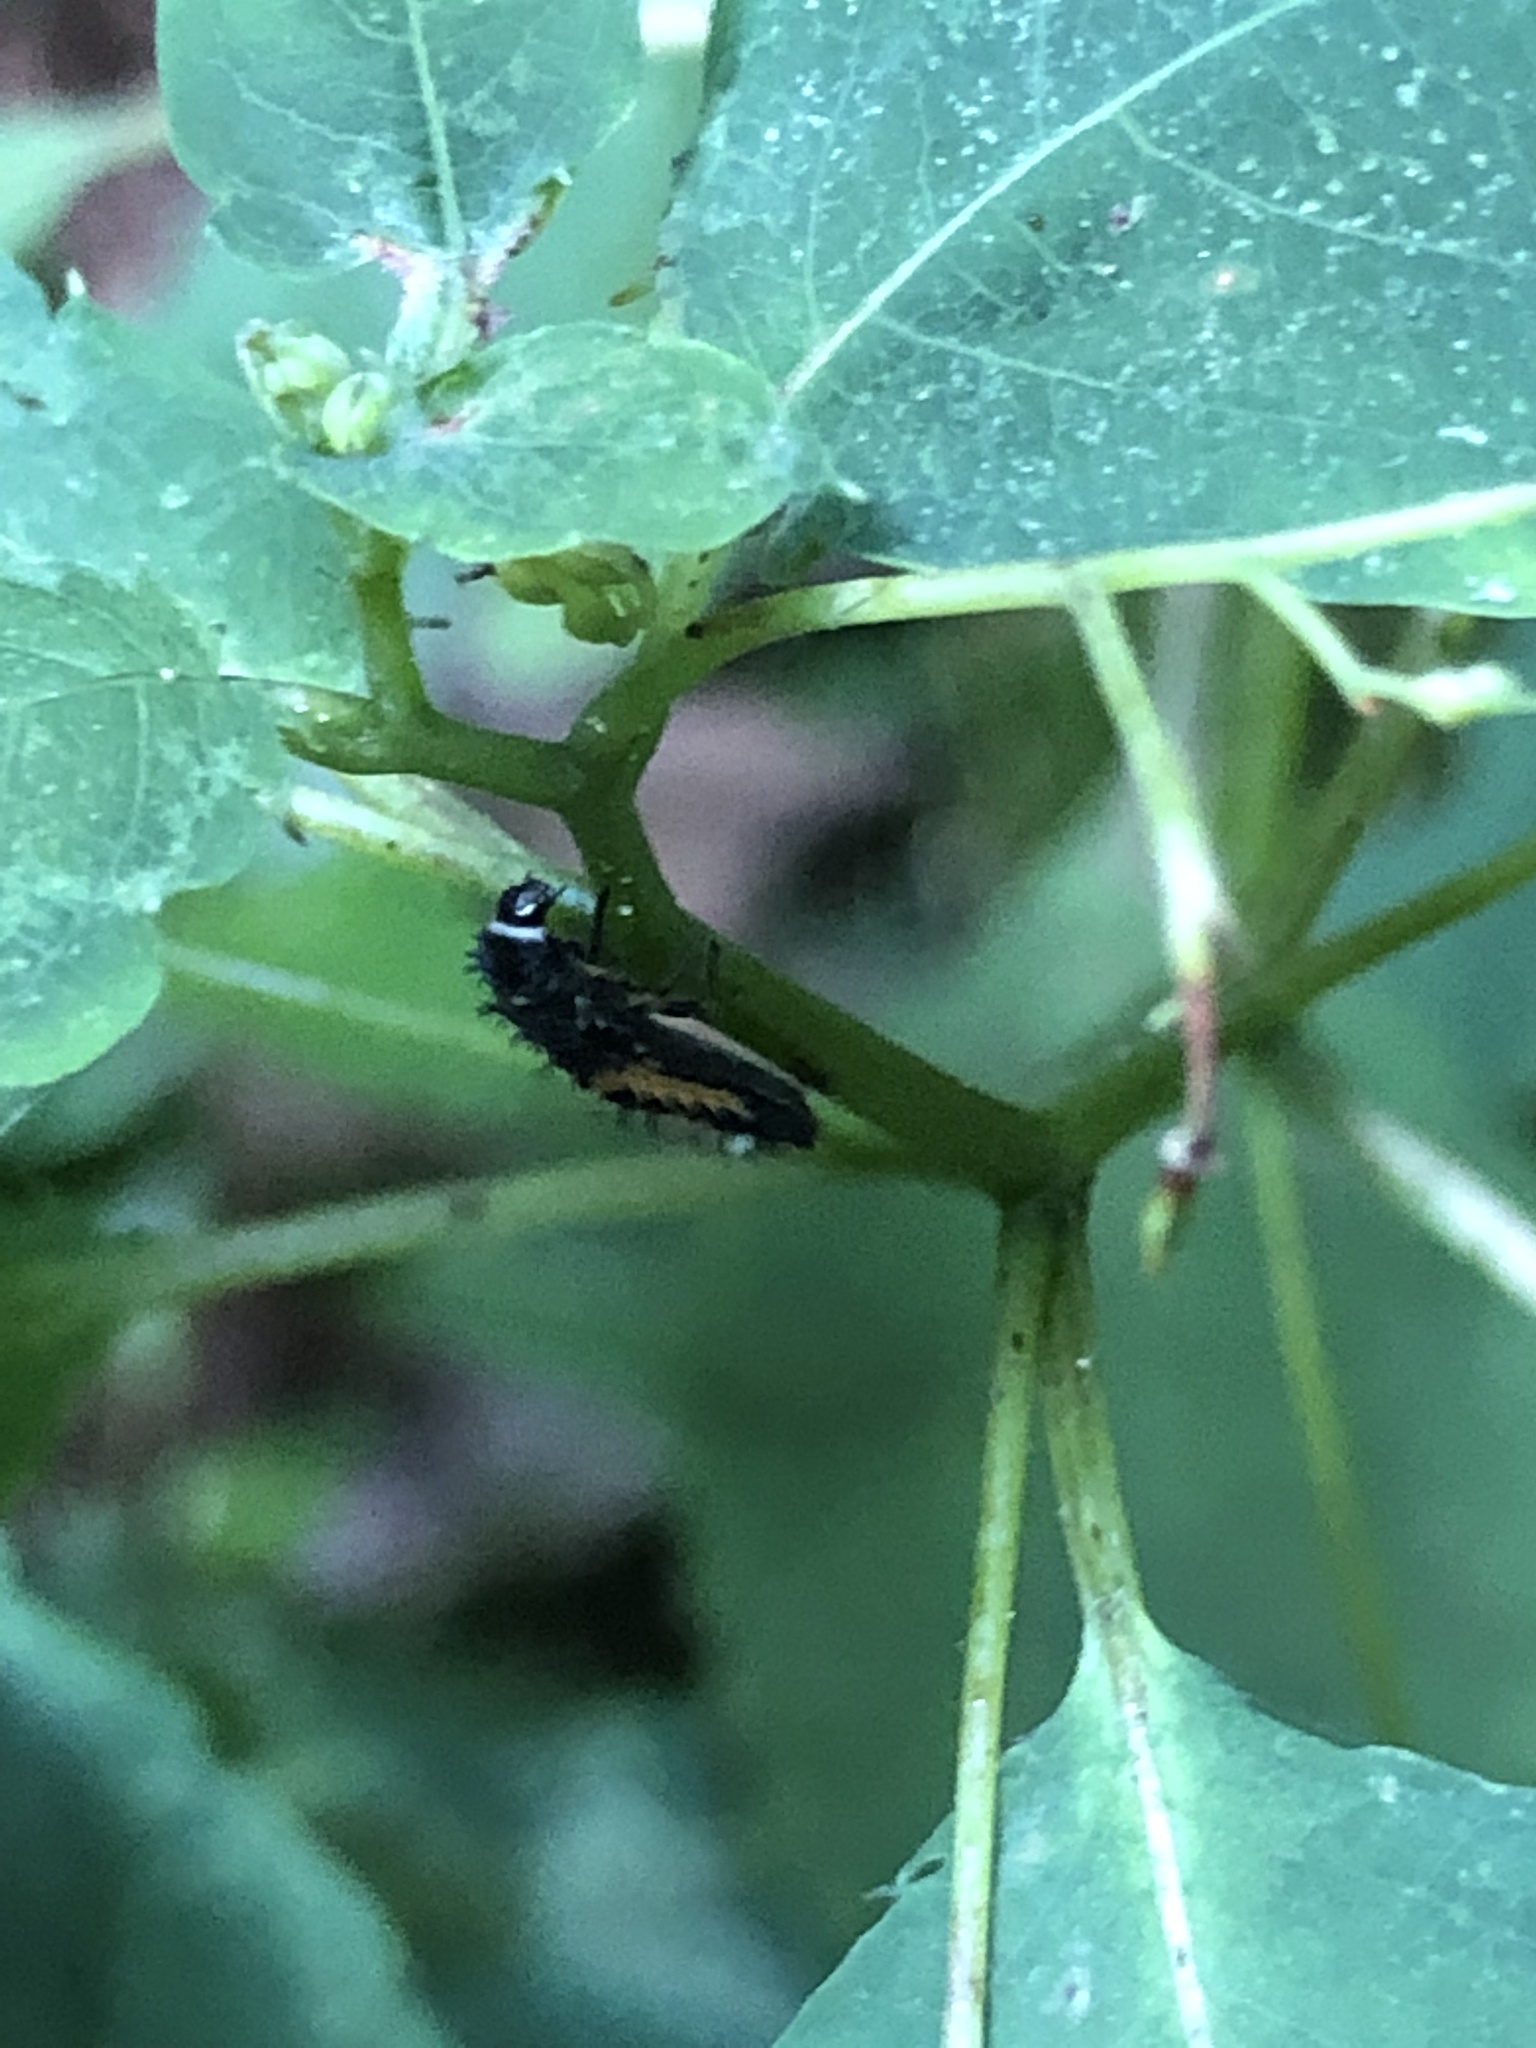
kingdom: Animalia
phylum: Arthropoda
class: Insecta
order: Coleoptera
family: Coccinellidae
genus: Harmonia
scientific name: Harmonia axyridis
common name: Harlequin ladybird
